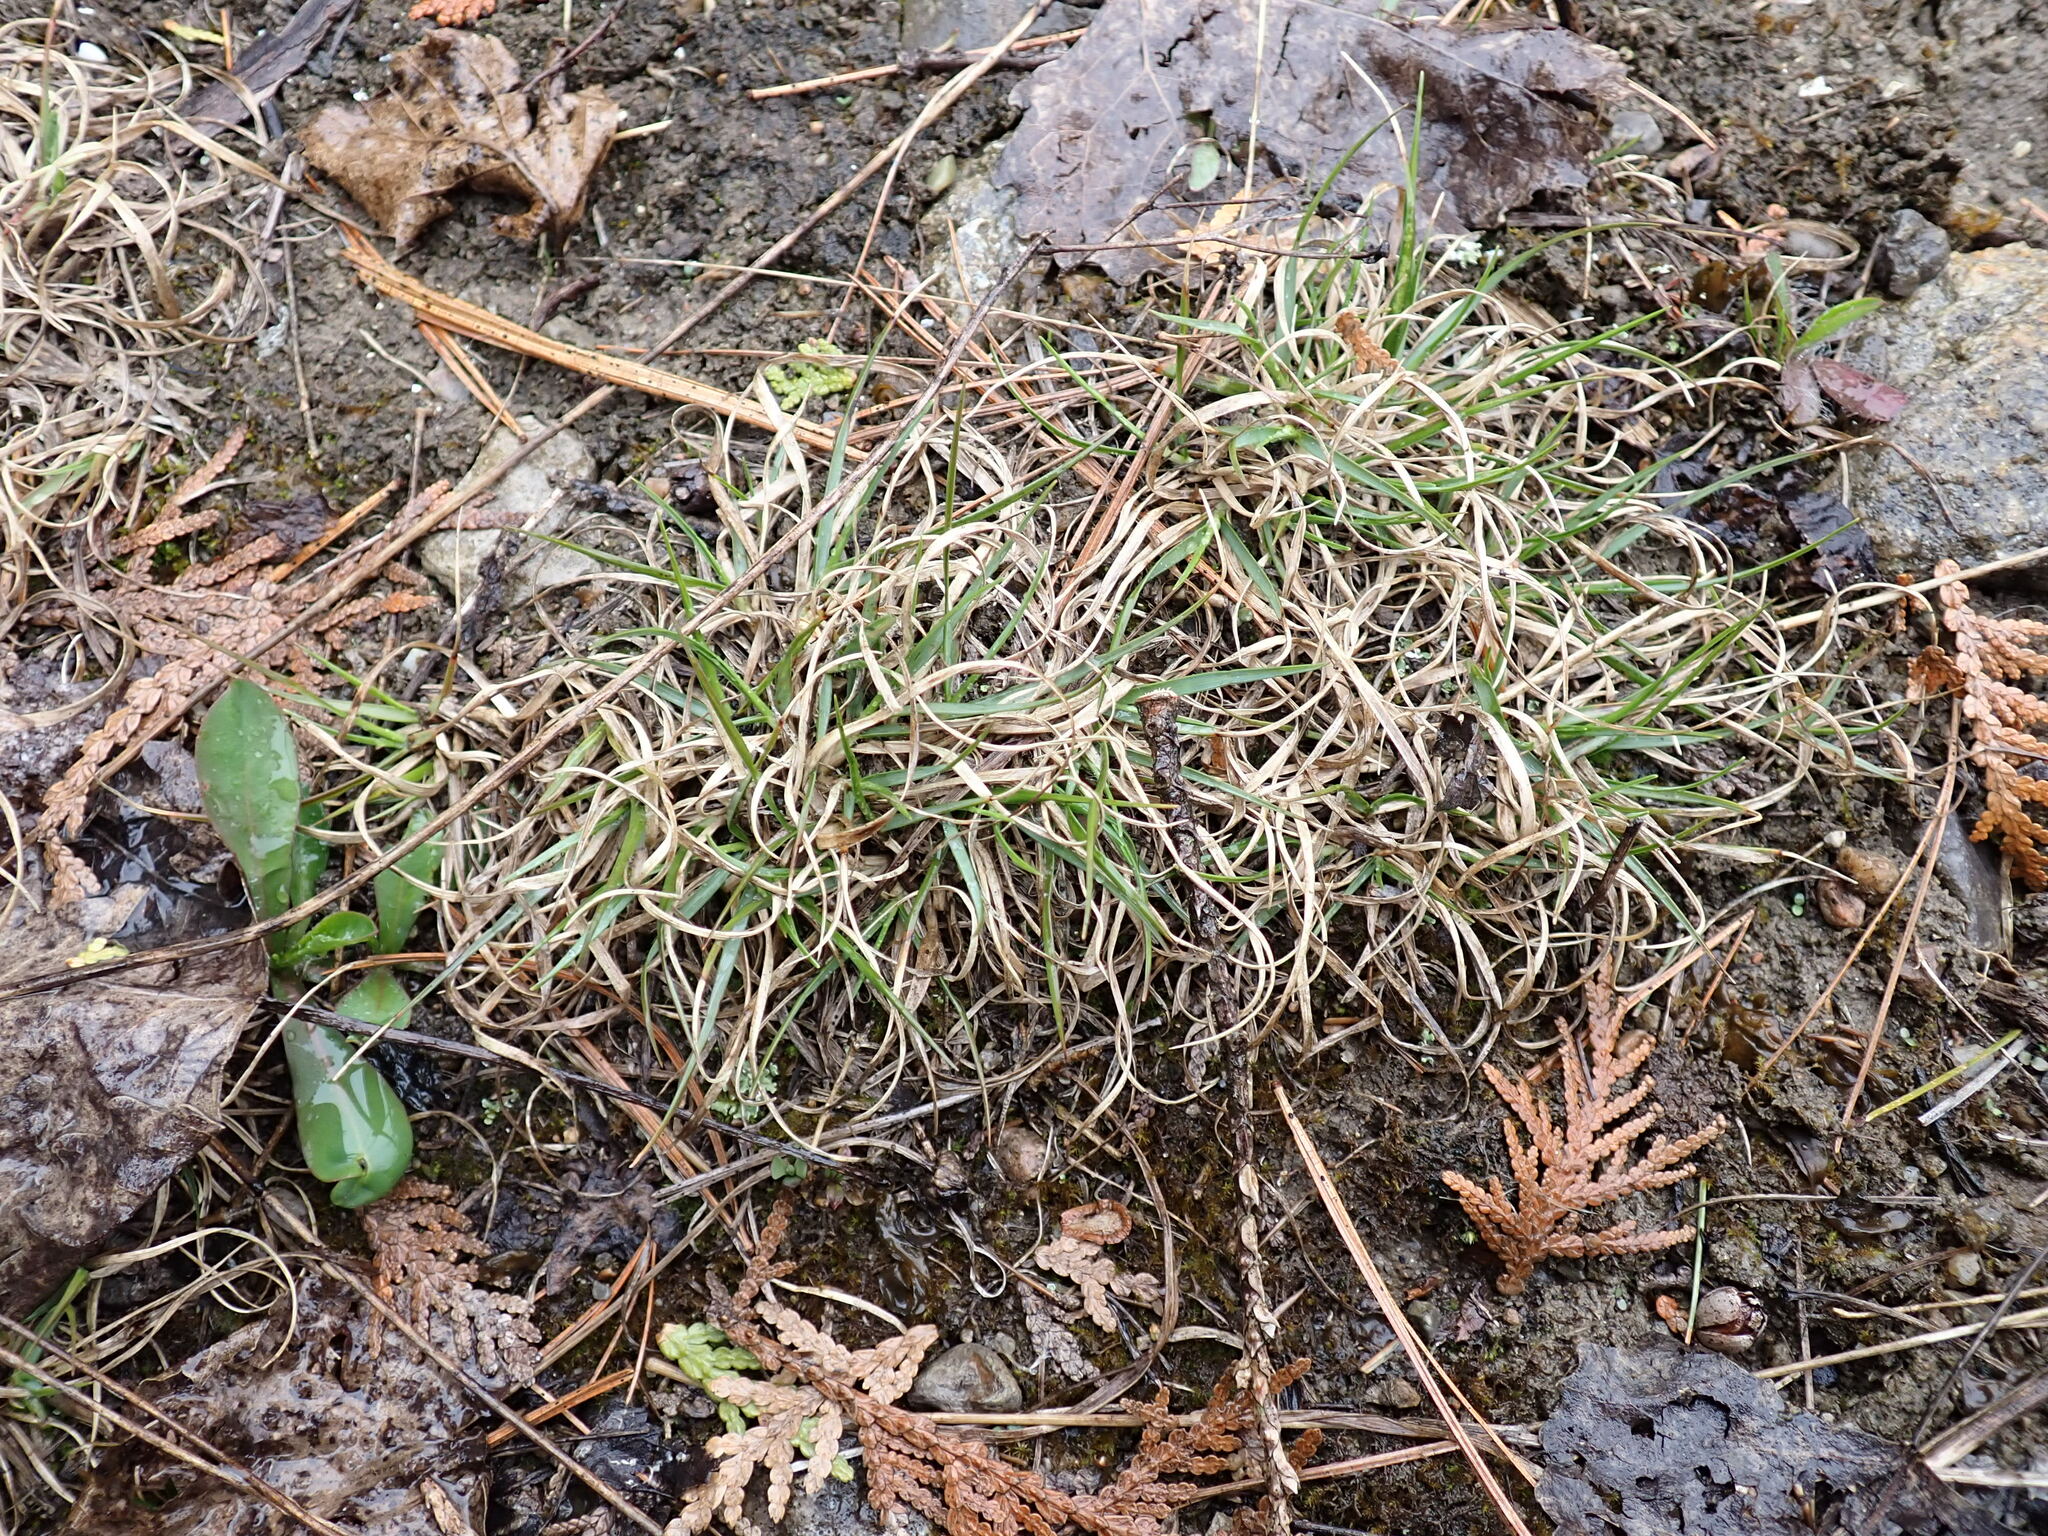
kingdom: Plantae
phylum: Tracheophyta
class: Liliopsida
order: Poales
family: Poaceae
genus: Danthonia
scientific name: Danthonia spicata
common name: Common wild oatgrass
